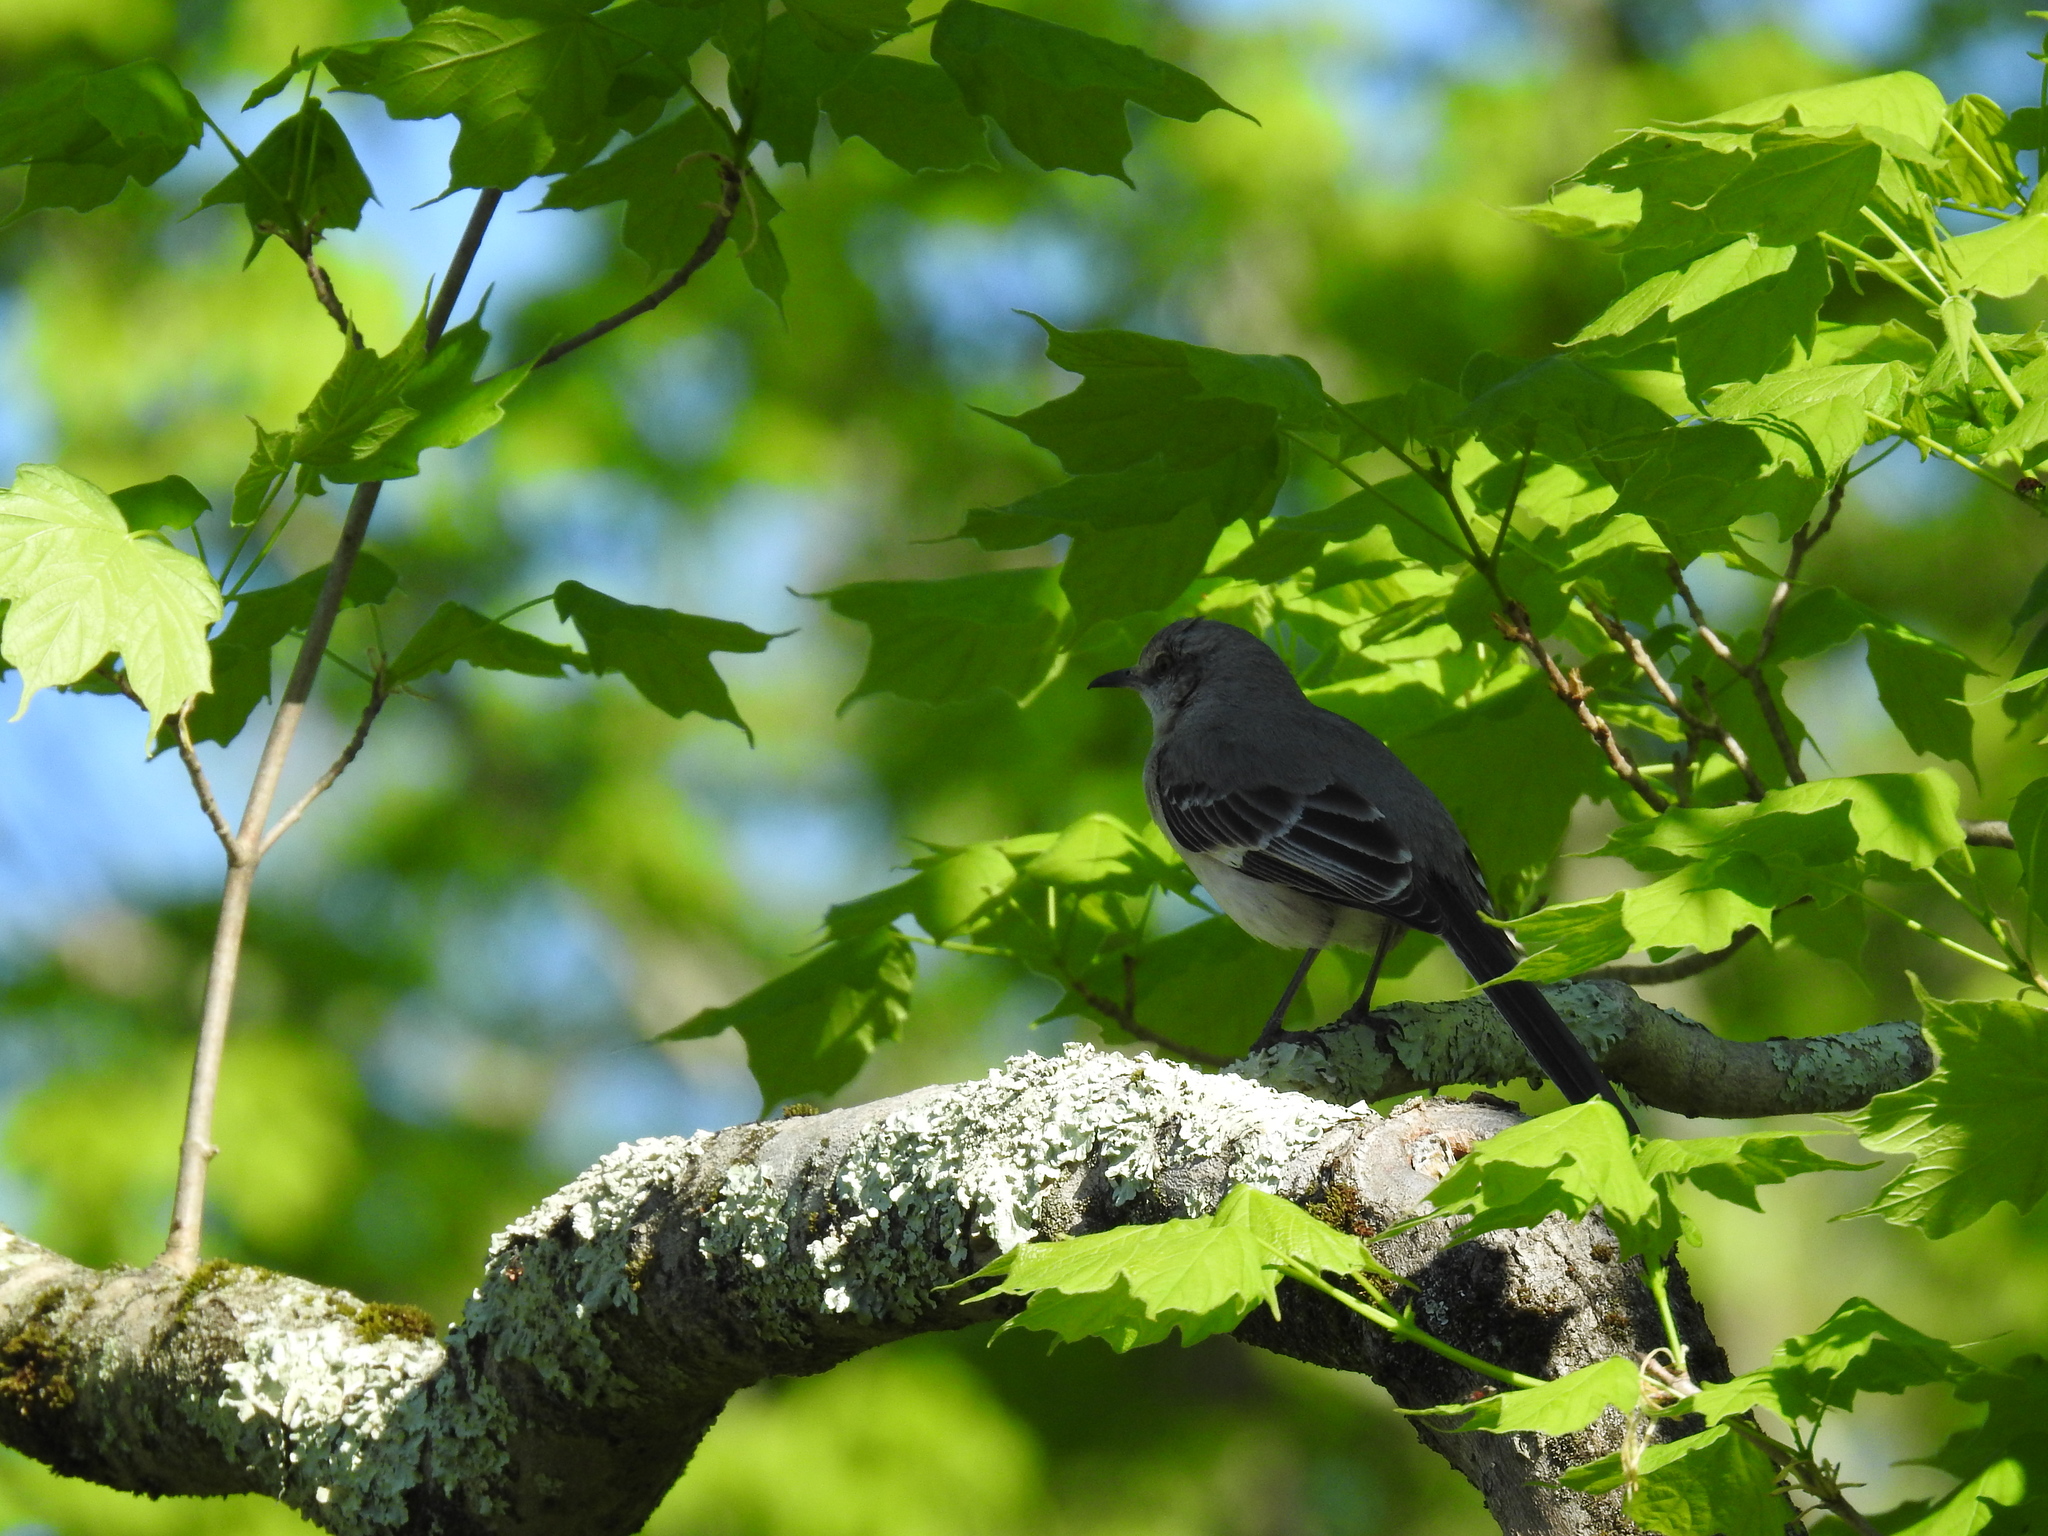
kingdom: Animalia
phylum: Chordata
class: Aves
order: Passeriformes
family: Mimidae
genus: Mimus
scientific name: Mimus polyglottos
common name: Northern mockingbird
